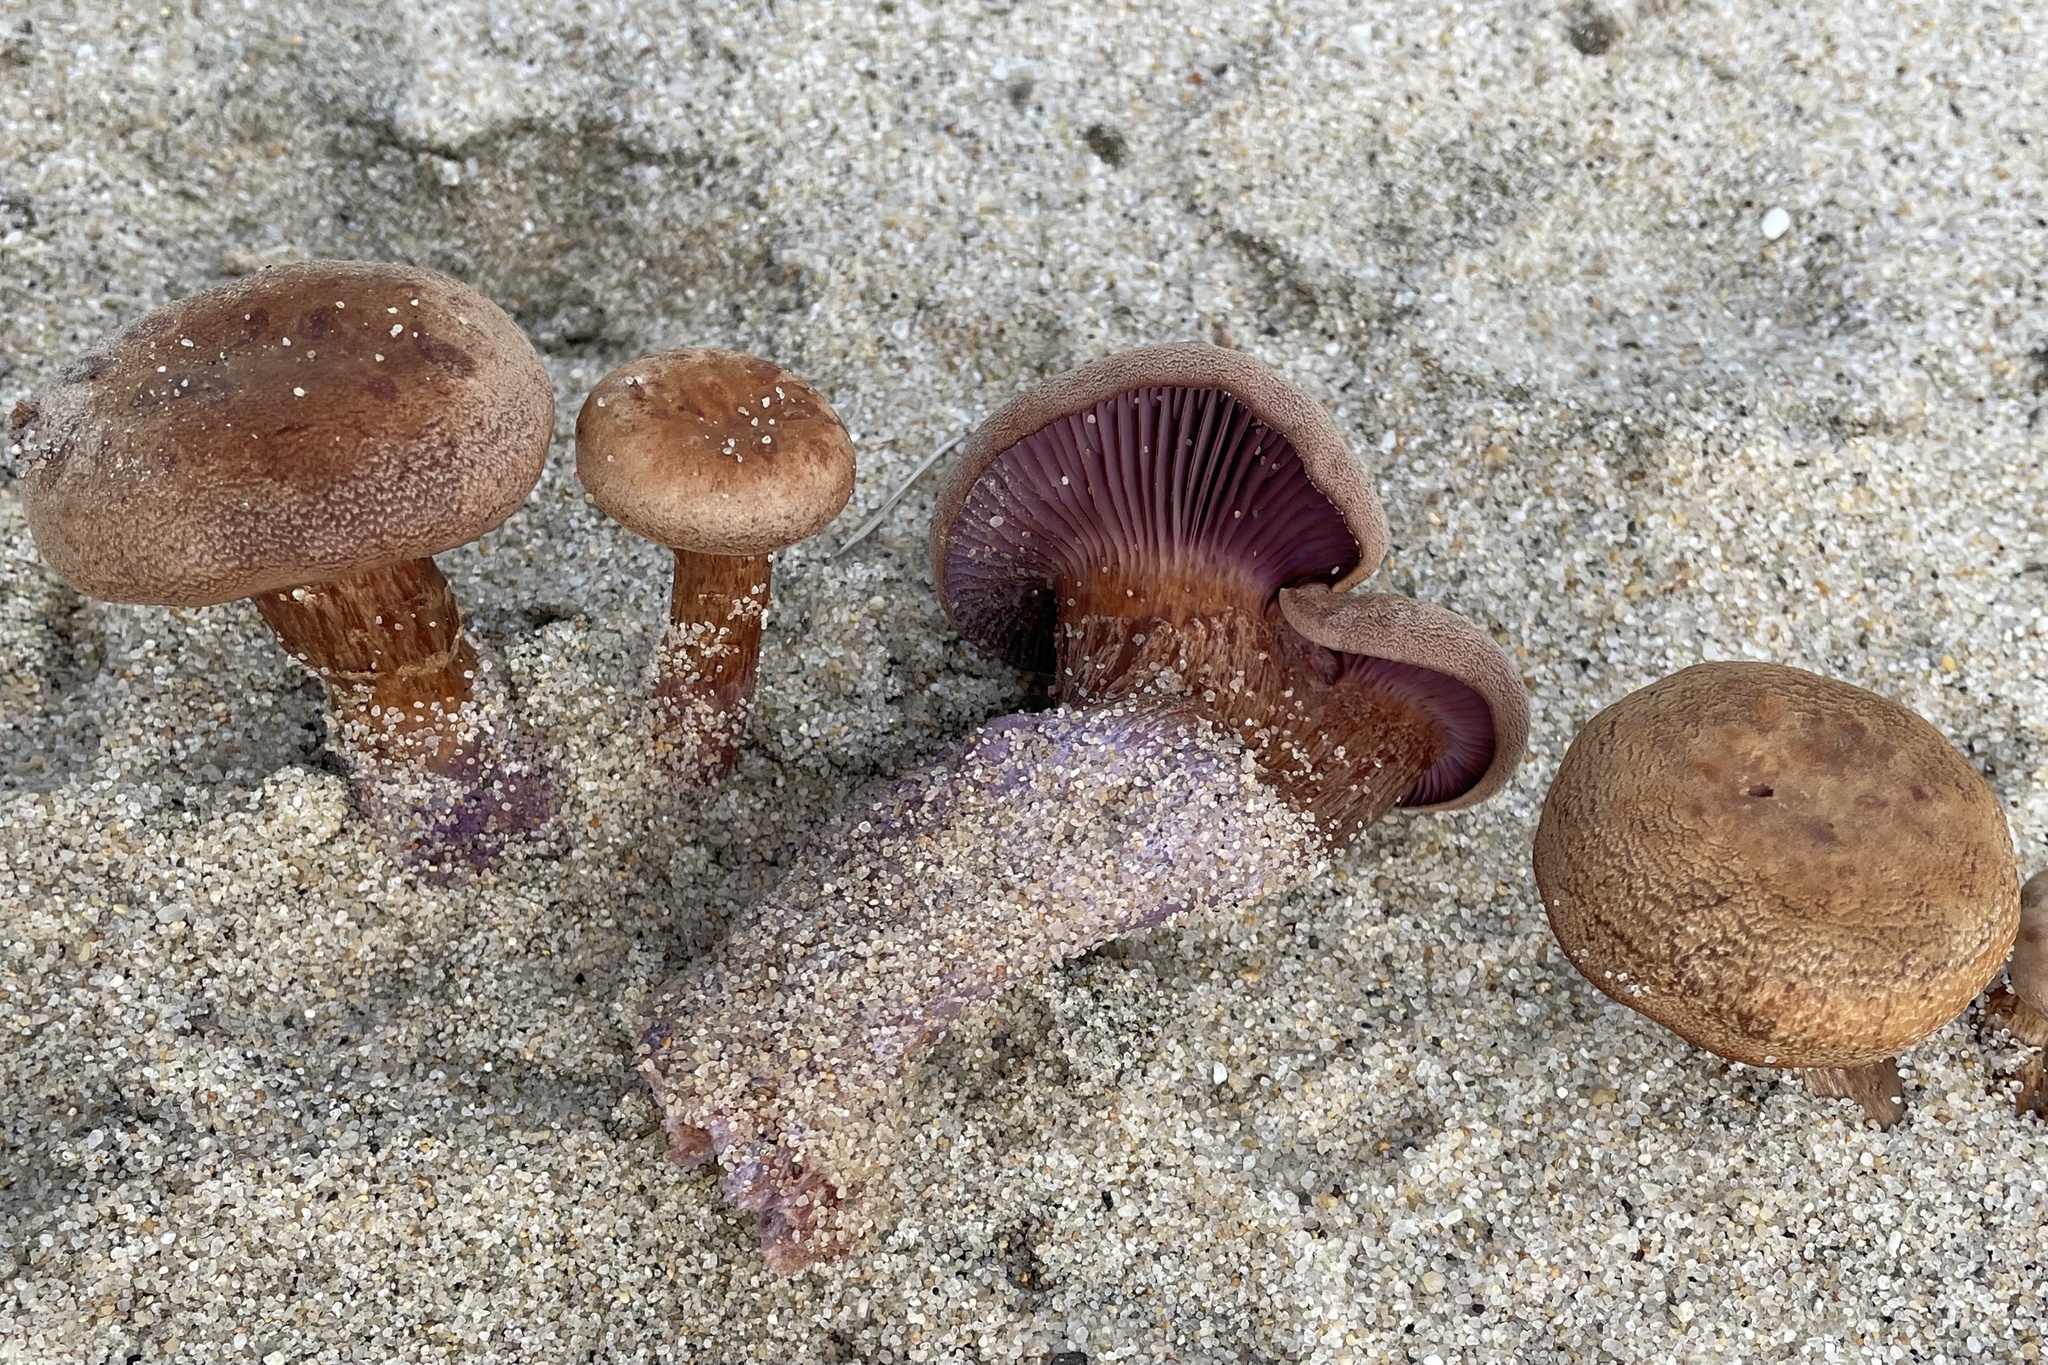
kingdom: Fungi
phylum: Basidiomycota
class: Agaricomycetes
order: Agaricales
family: Hydnangiaceae
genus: Laccaria
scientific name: Laccaria trullissata
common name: Sandy laccaria
